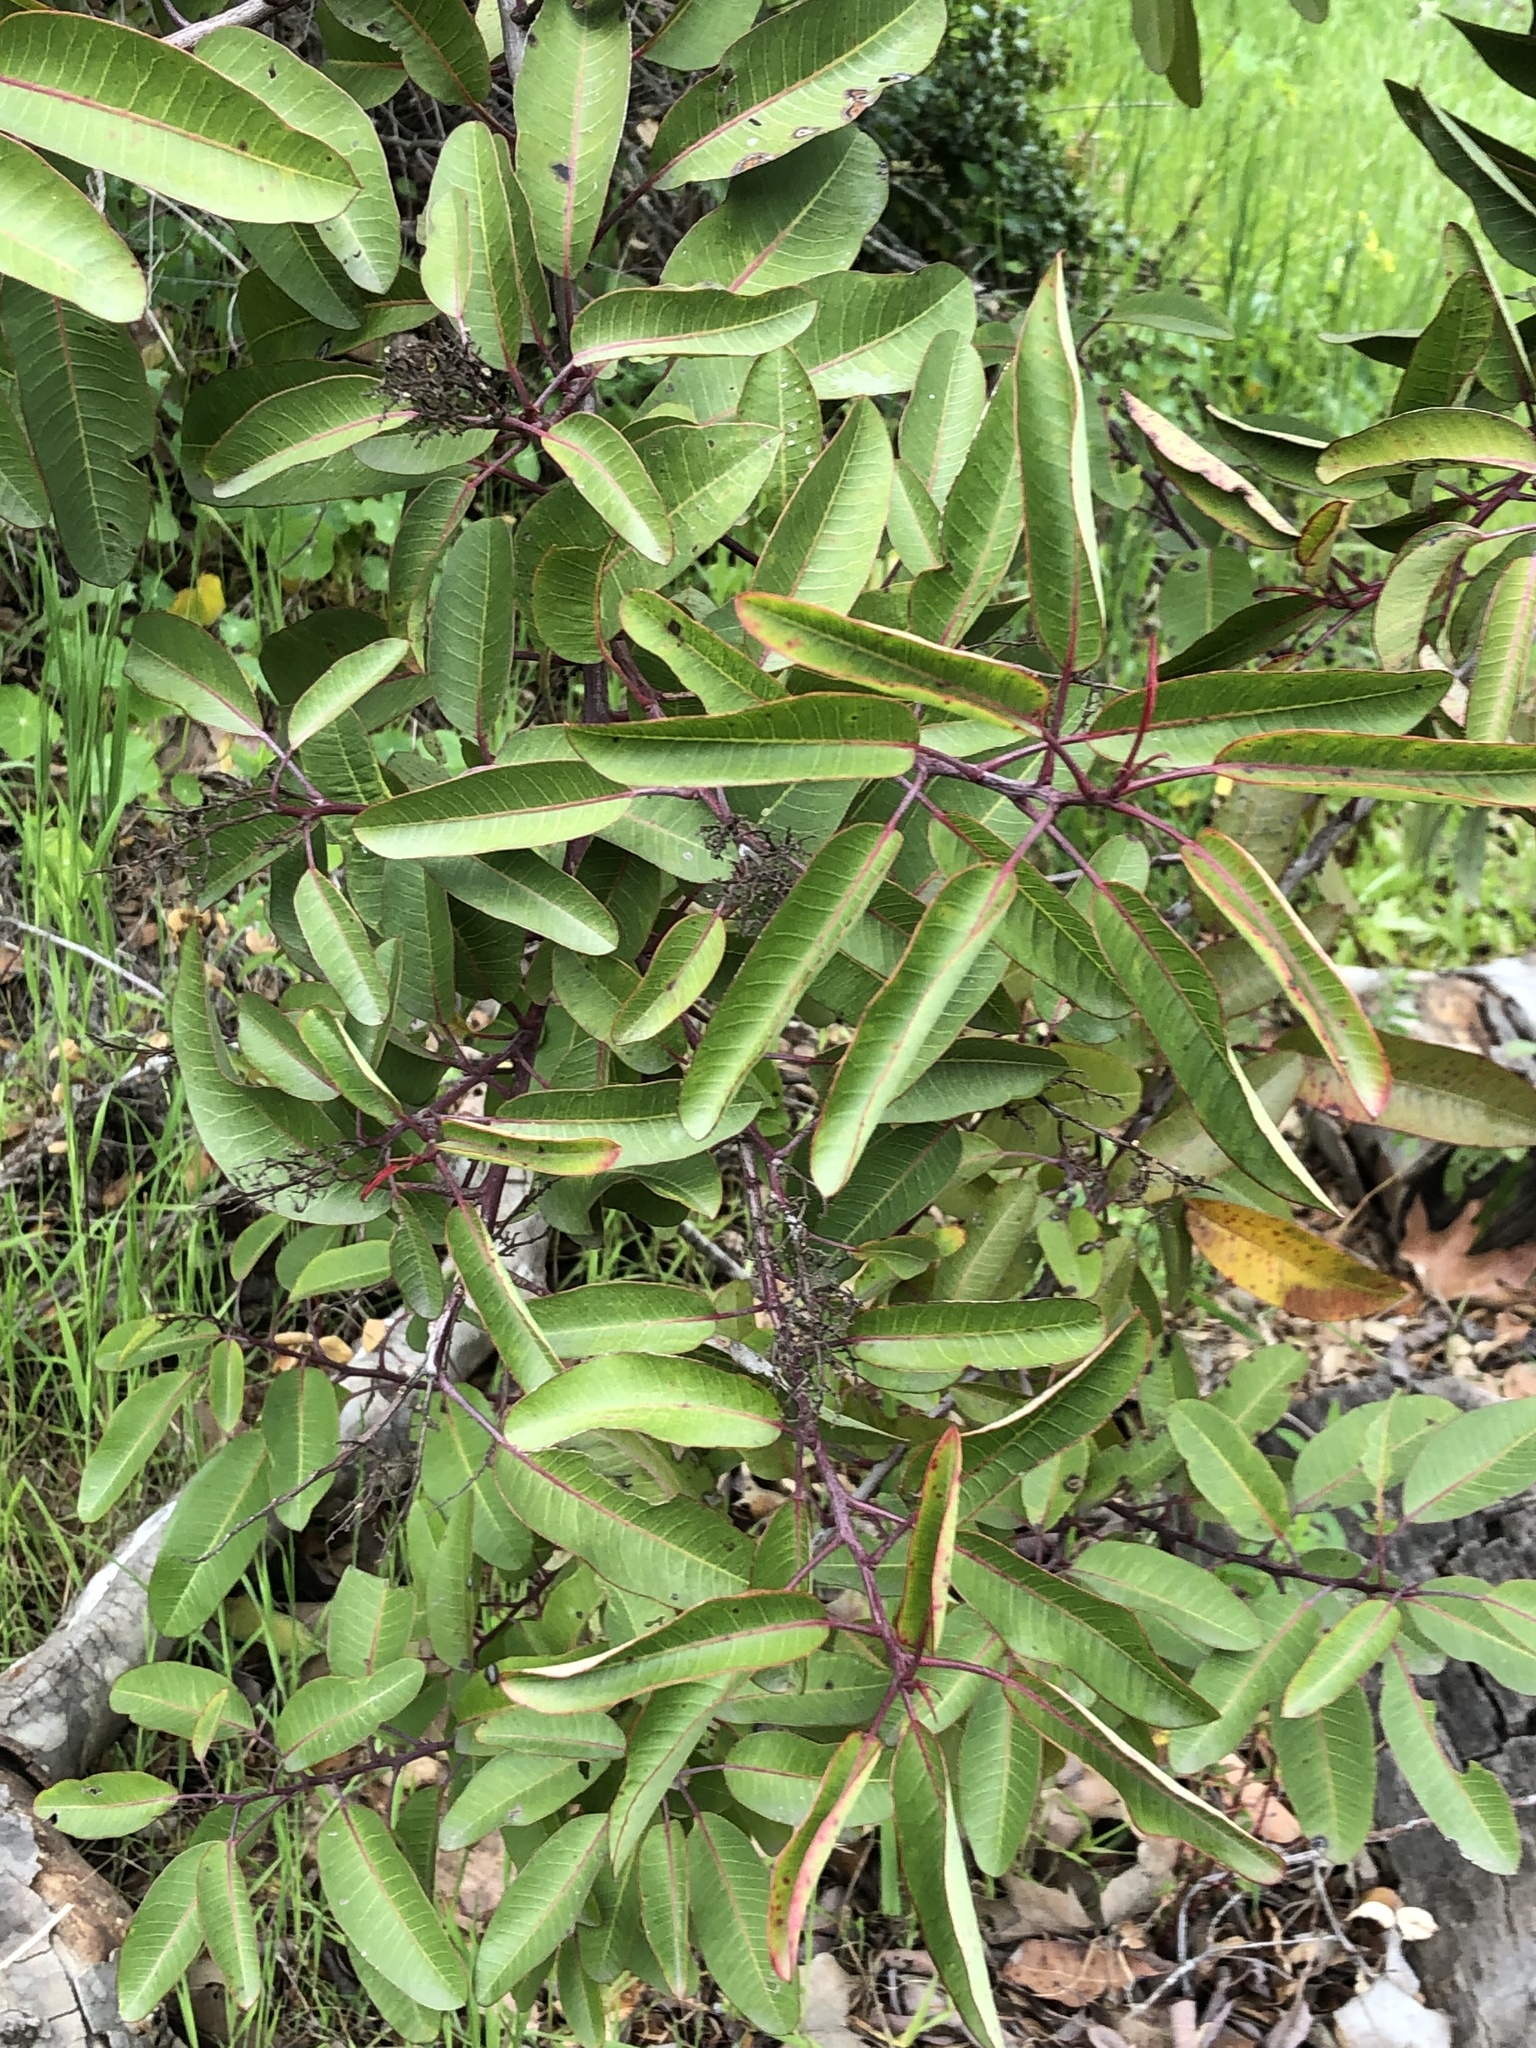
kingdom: Plantae
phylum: Tracheophyta
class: Magnoliopsida
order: Sapindales
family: Anacardiaceae
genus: Malosma
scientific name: Malosma laurina
